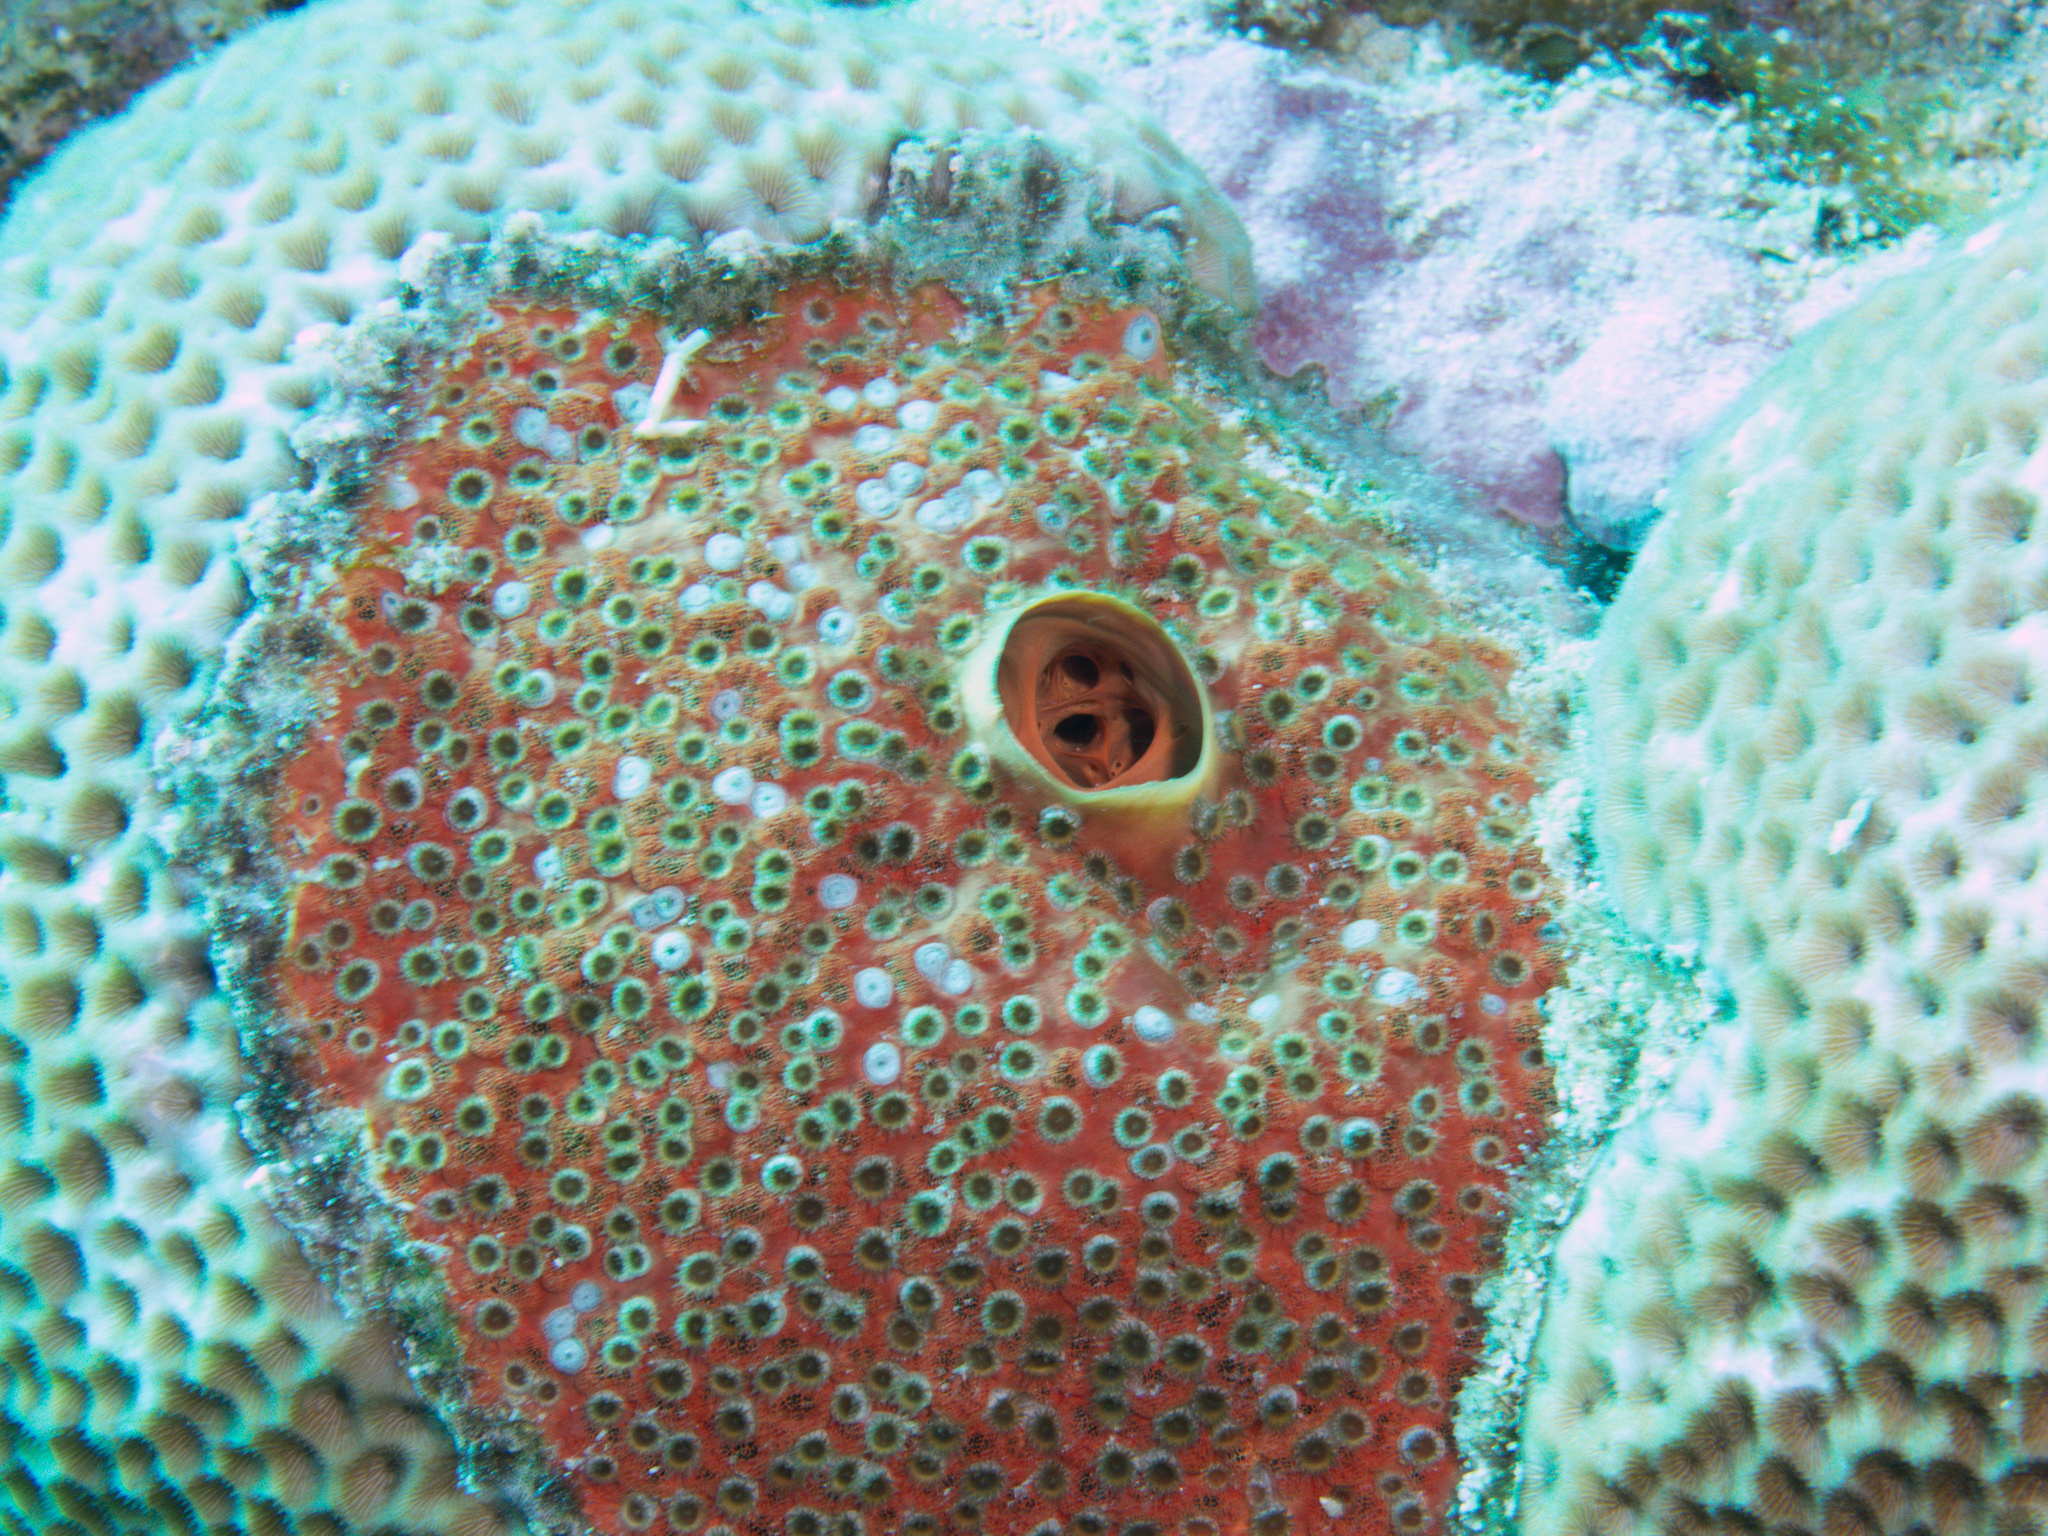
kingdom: Animalia
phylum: Porifera
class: Demospongiae
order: Clionaida
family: Clionaidae
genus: Cliothosa
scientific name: Cliothosa delitrix
